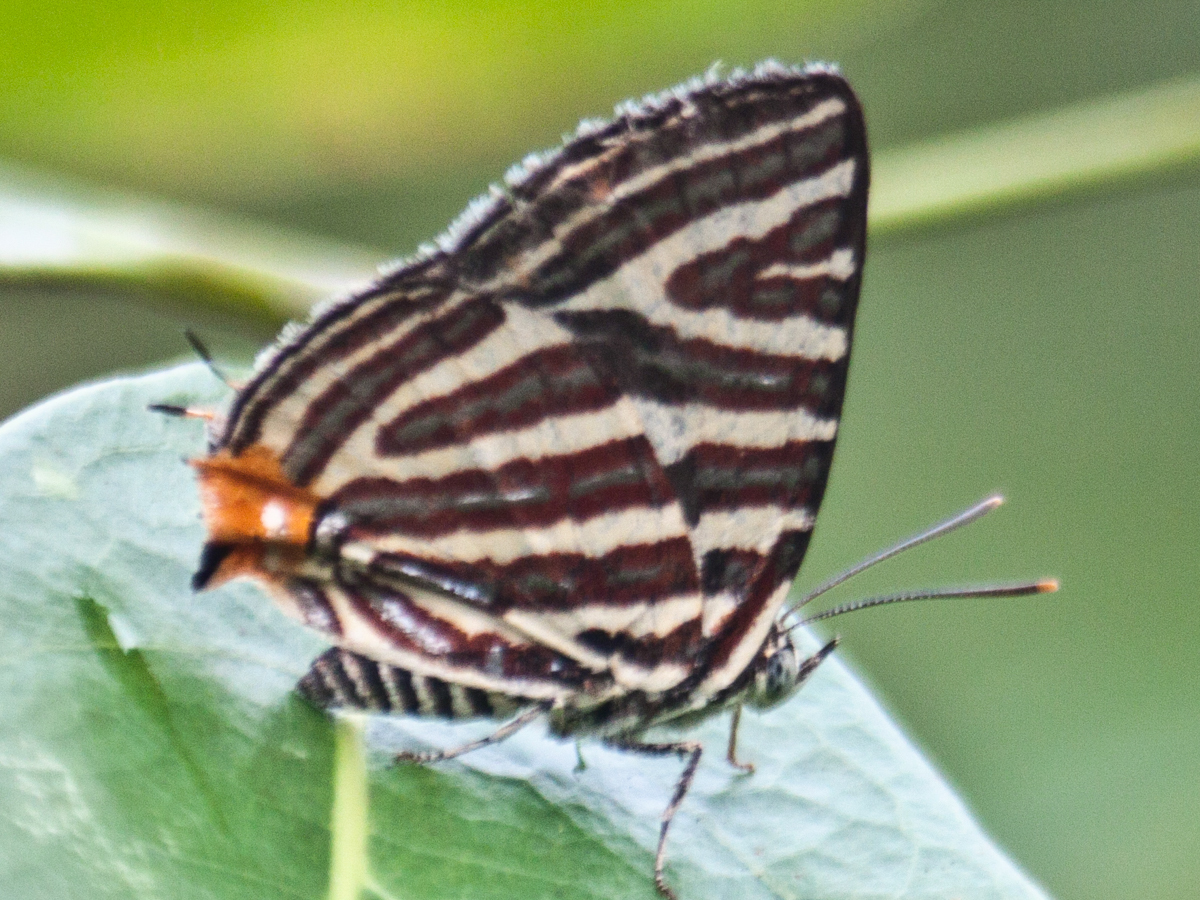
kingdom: Animalia
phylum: Arthropoda
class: Insecta
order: Lepidoptera
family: Lycaenidae
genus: Cigaritis
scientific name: Cigaritis lohita
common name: Long-banded silverline
